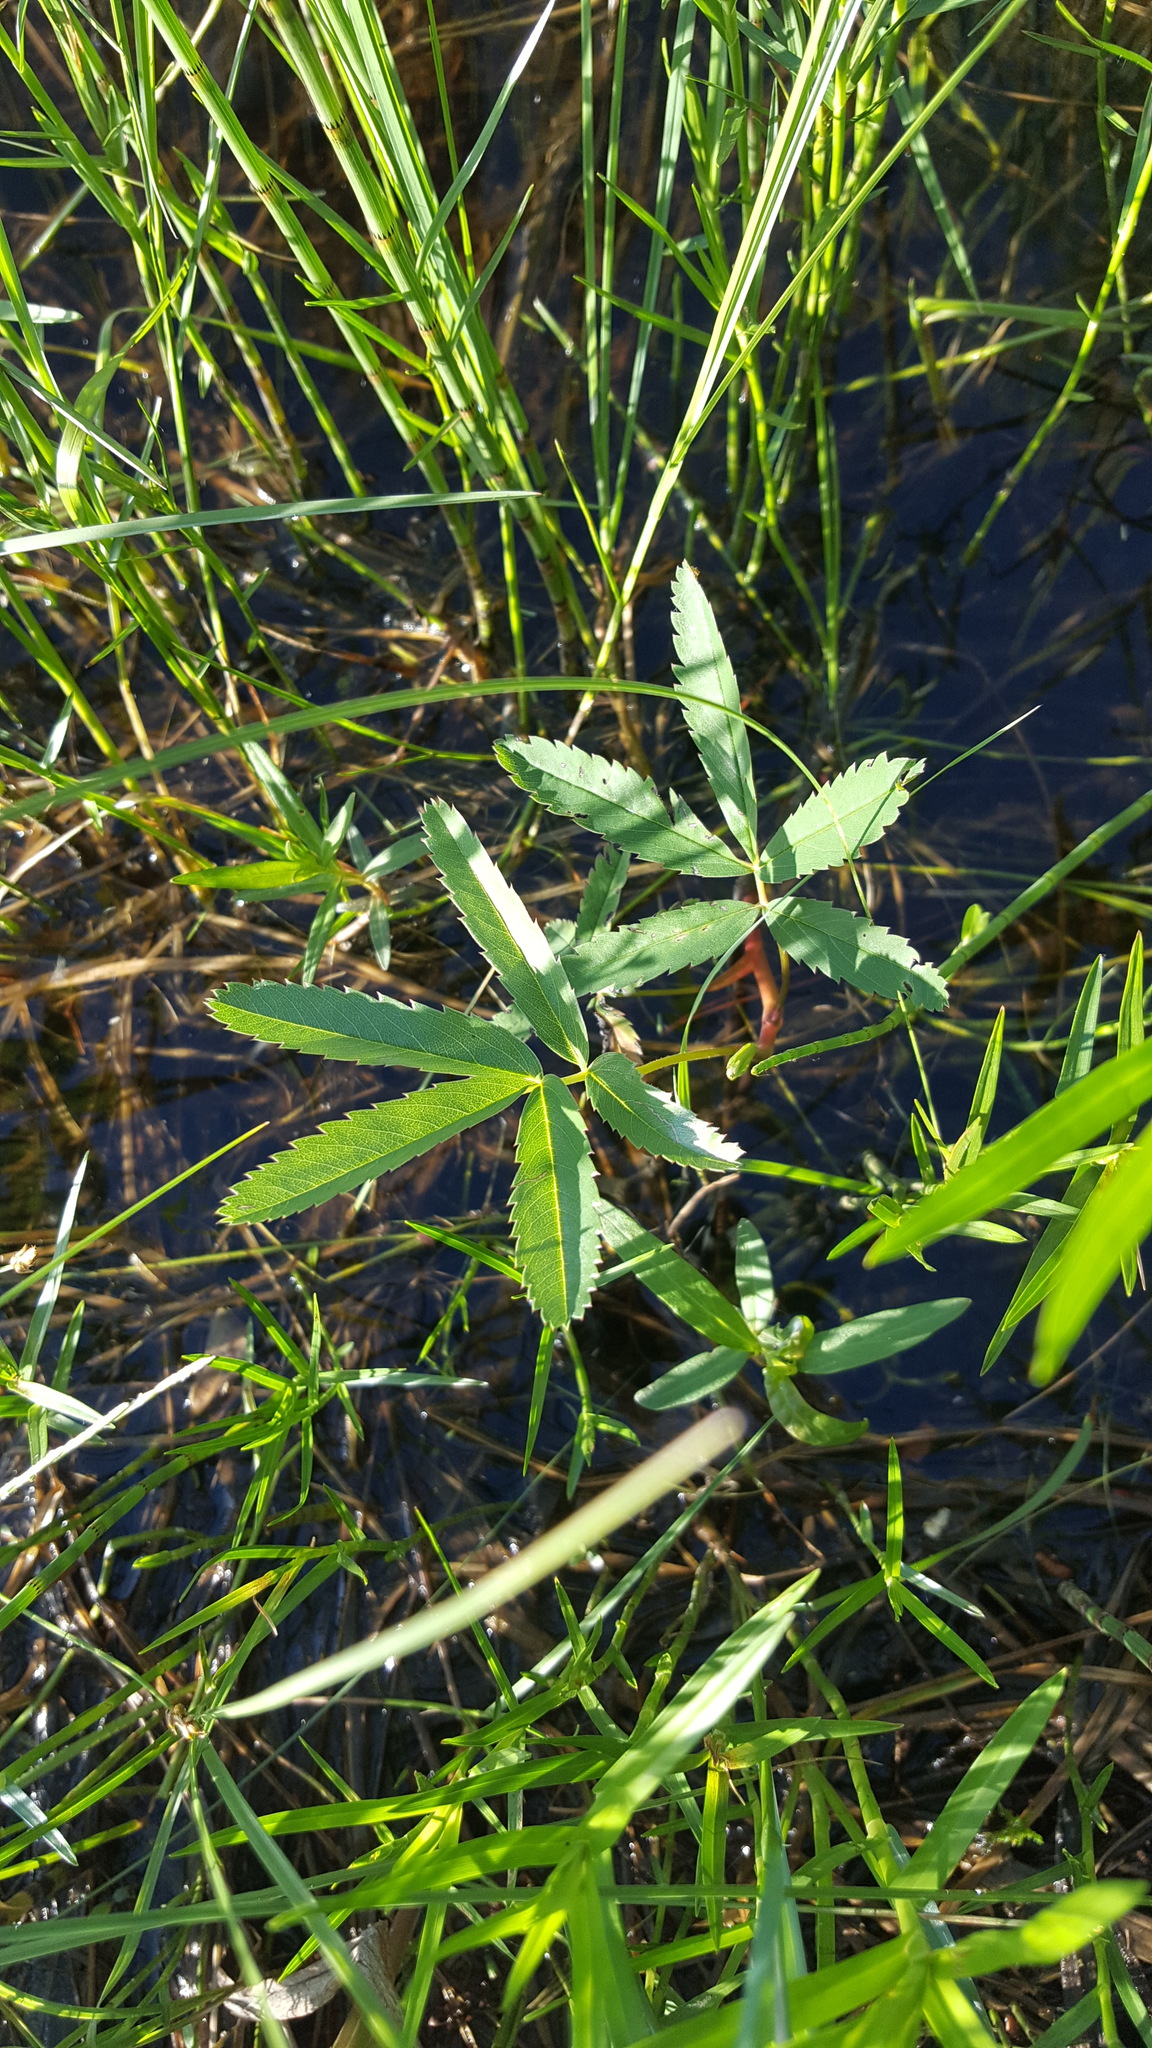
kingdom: Plantae
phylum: Tracheophyta
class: Magnoliopsida
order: Rosales
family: Rosaceae
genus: Comarum
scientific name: Comarum palustre
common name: Marsh cinquefoil
